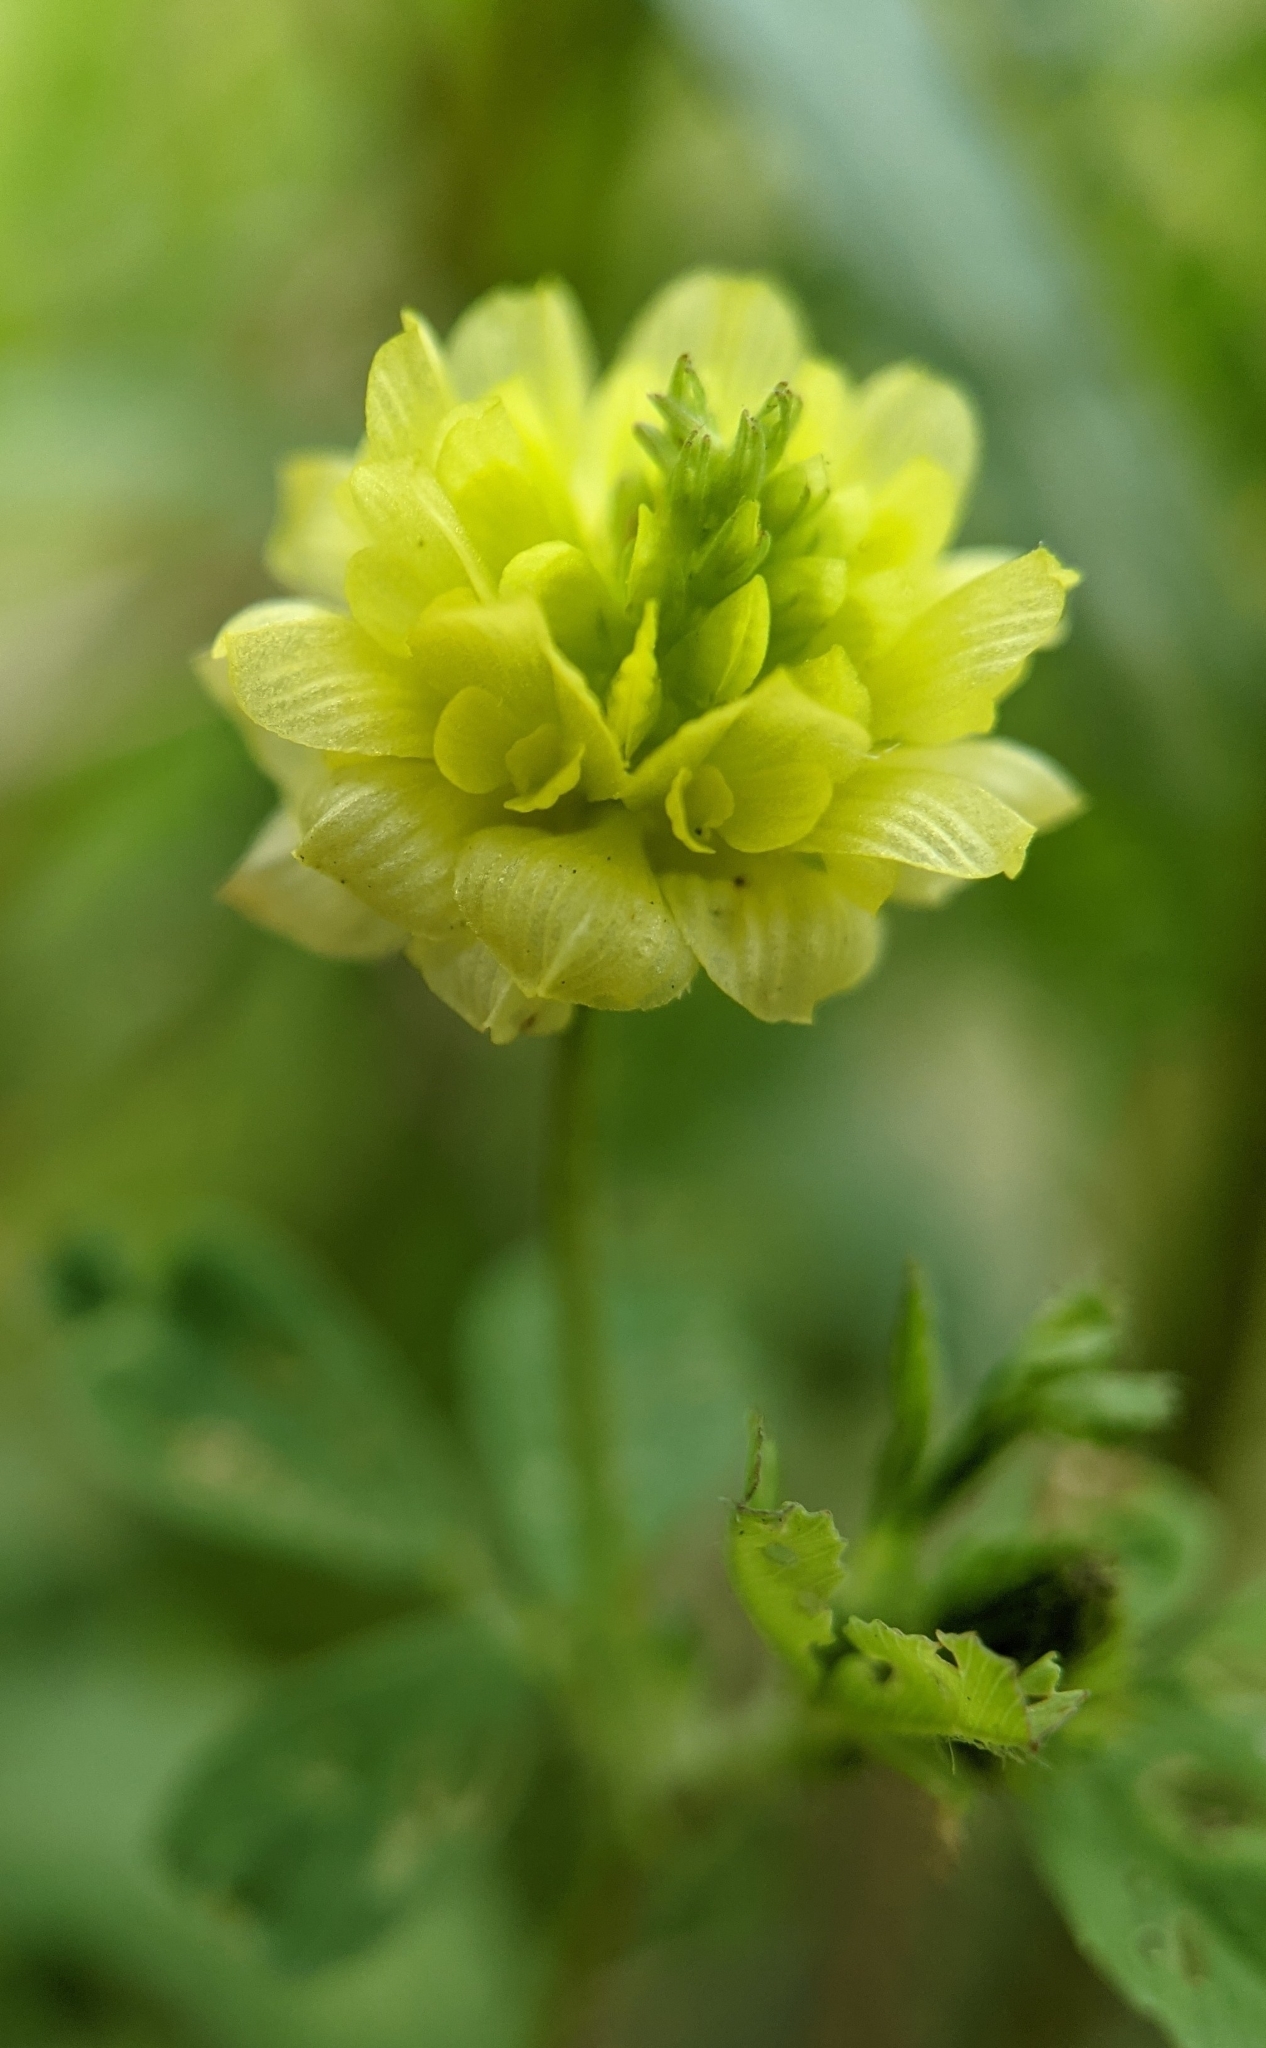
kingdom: Plantae
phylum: Tracheophyta
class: Magnoliopsida
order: Fabales
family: Fabaceae
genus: Trifolium
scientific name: Trifolium campestre
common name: Field clover
